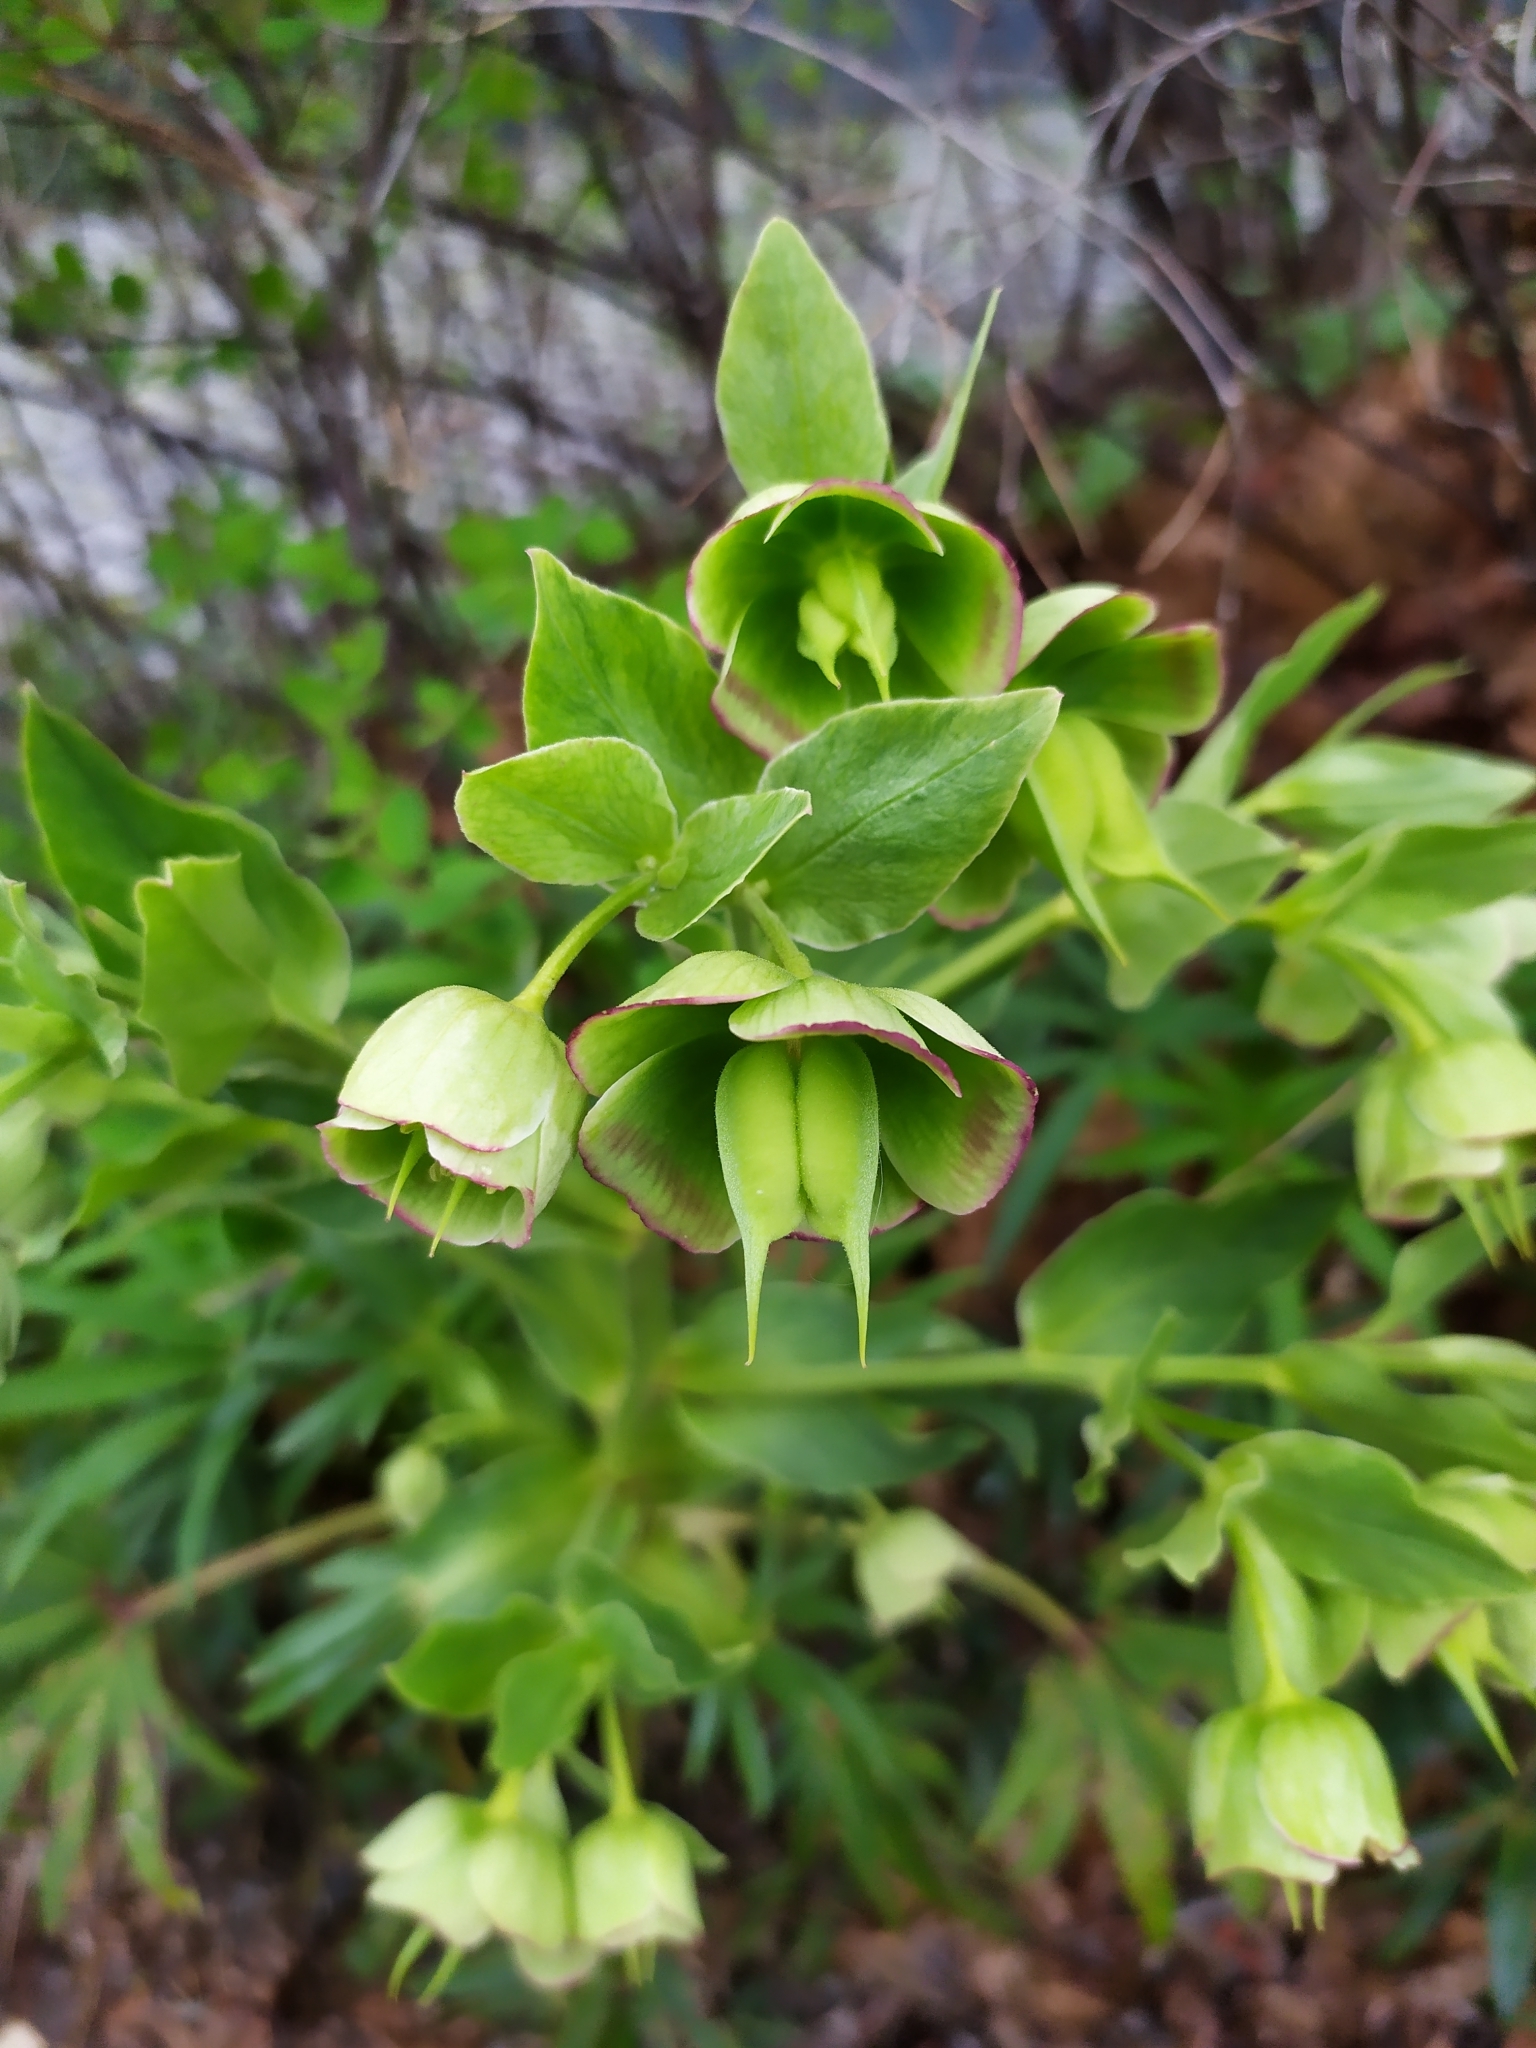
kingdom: Plantae
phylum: Tracheophyta
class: Magnoliopsida
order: Ranunculales
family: Ranunculaceae
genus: Helleborus
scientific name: Helleborus foetidus
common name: Stinking hellebore
